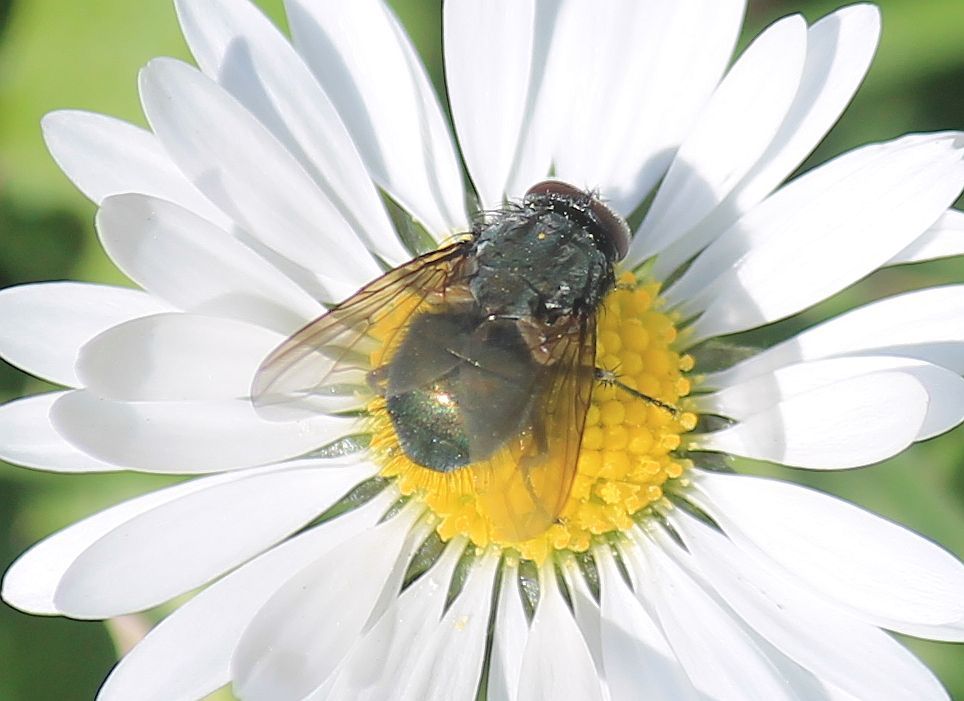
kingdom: Animalia
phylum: Arthropoda
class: Insecta
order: Diptera
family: Muscidae
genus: Dasyphora
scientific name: Dasyphora cyanella
